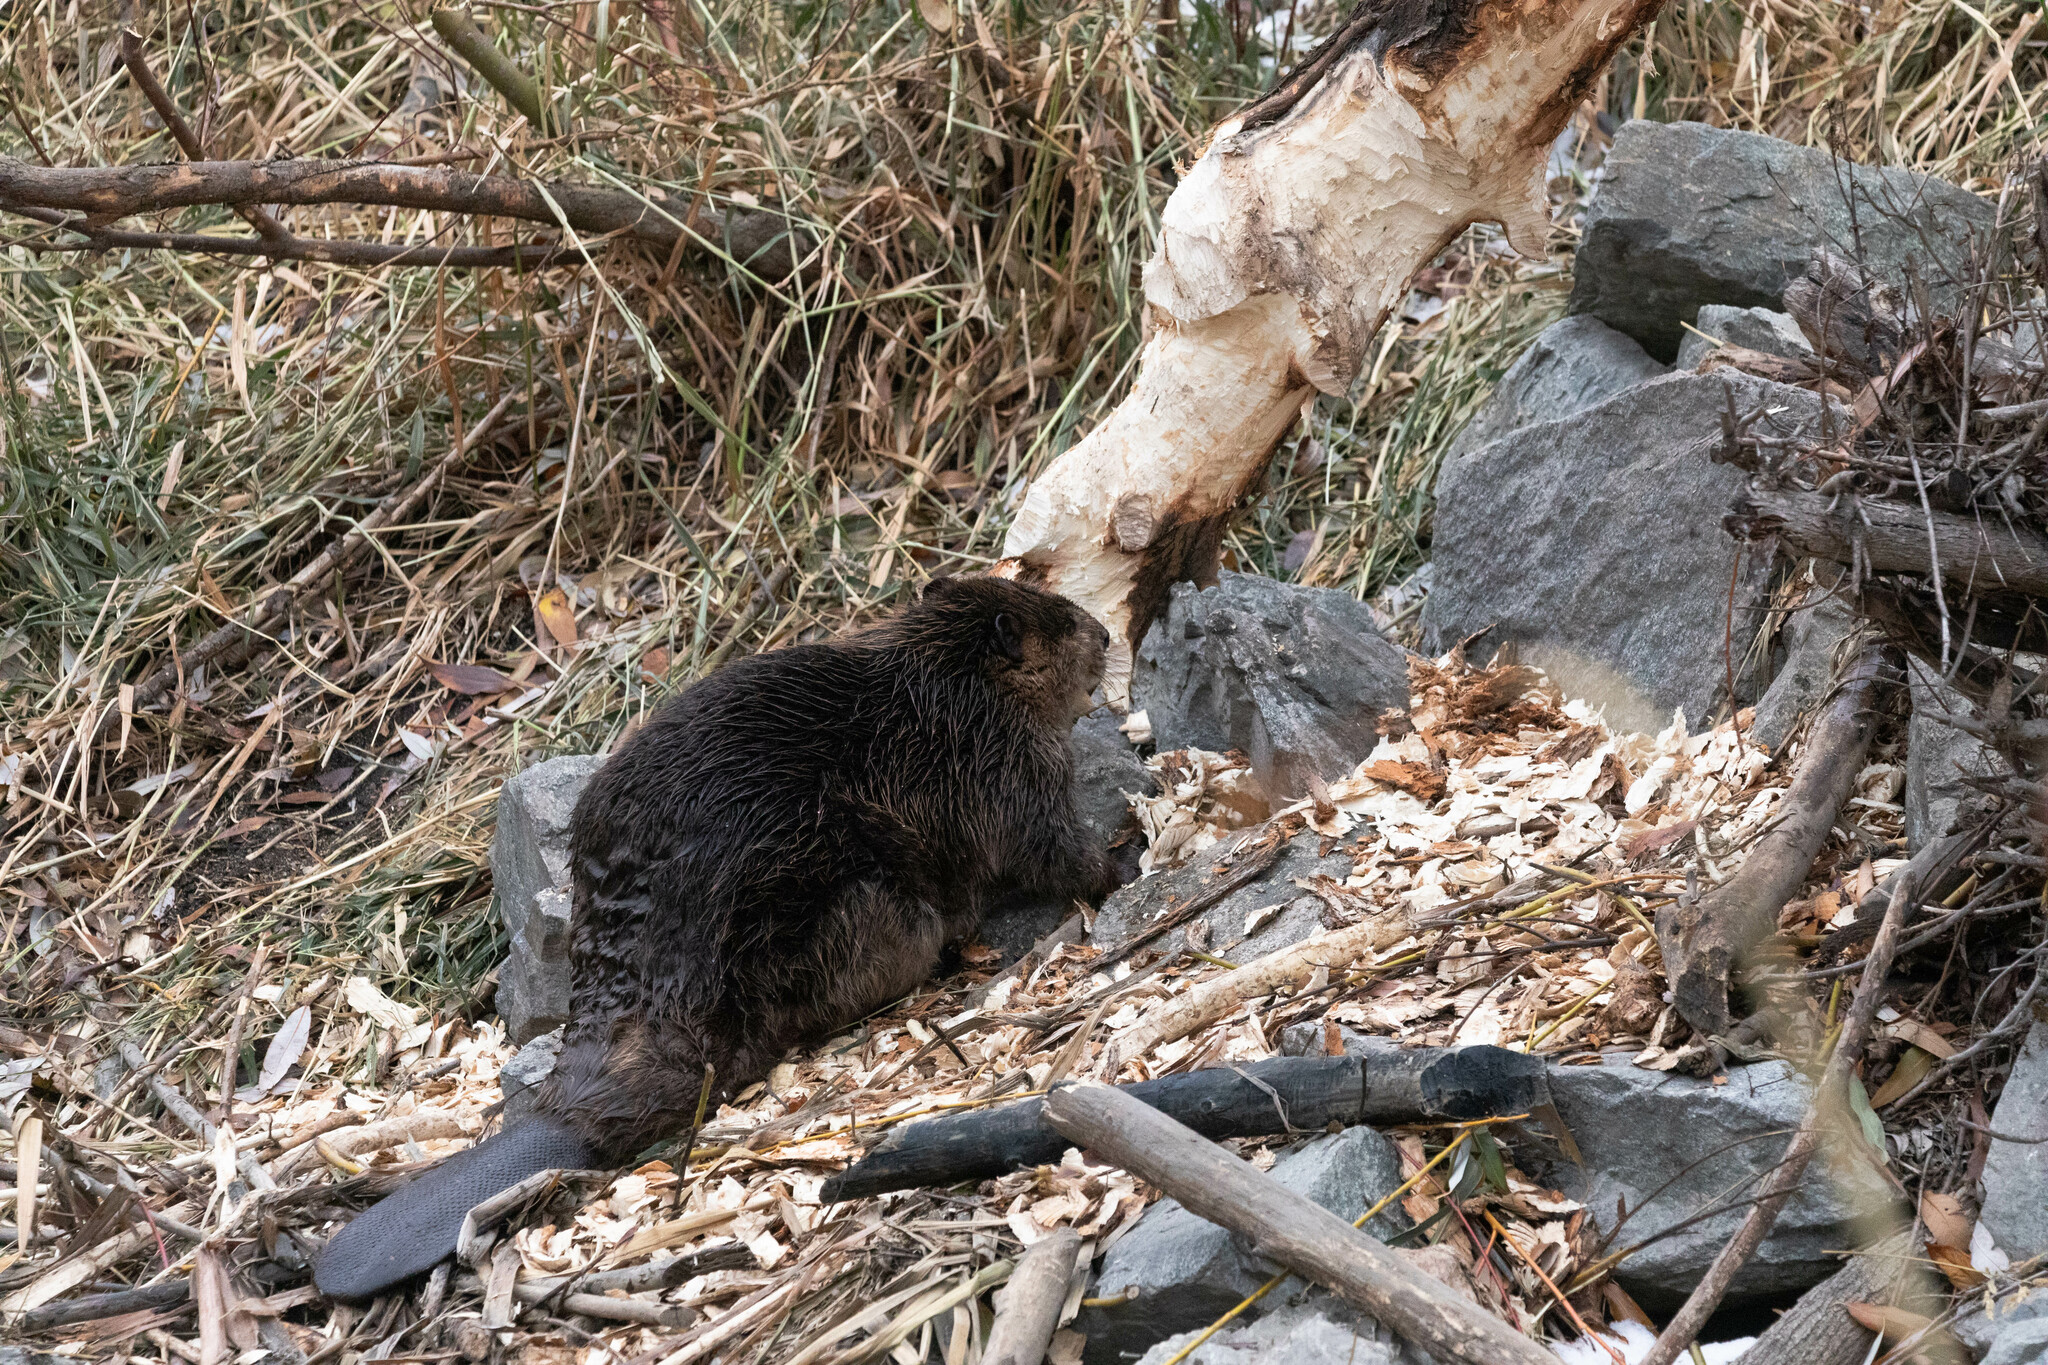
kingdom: Animalia
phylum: Chordata
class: Mammalia
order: Rodentia
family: Castoridae
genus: Castor
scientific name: Castor canadensis
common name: American beaver
